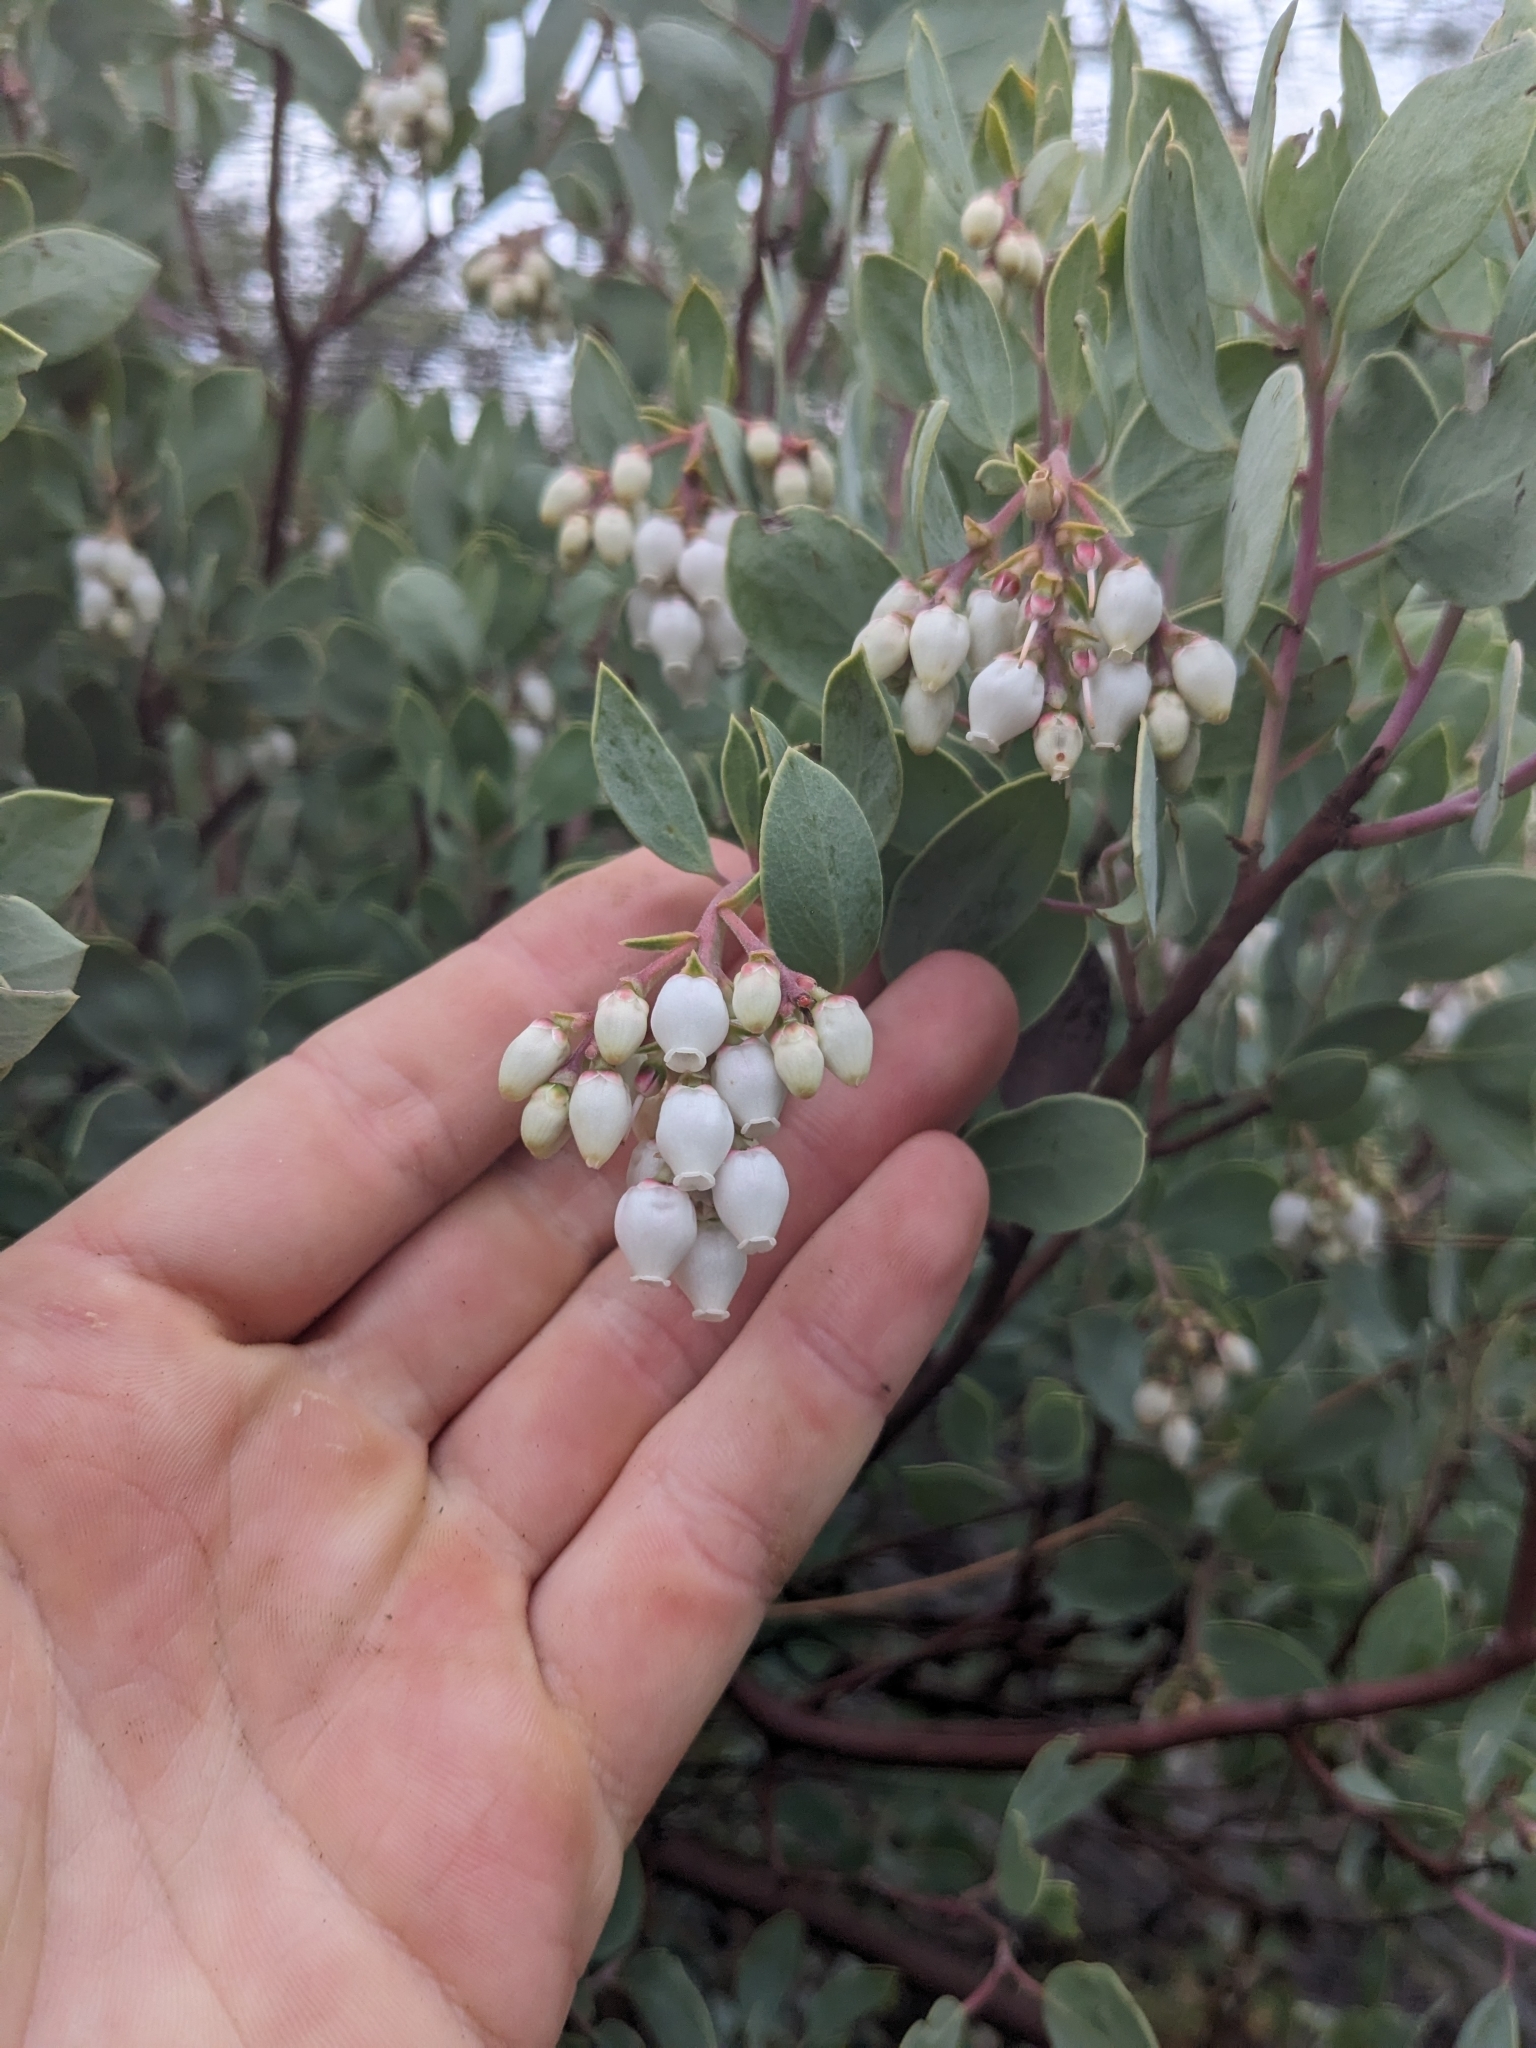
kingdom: Plantae
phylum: Tracheophyta
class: Magnoliopsida
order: Ericales
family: Ericaceae
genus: Arctostaphylos
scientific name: Arctostaphylos glauca
